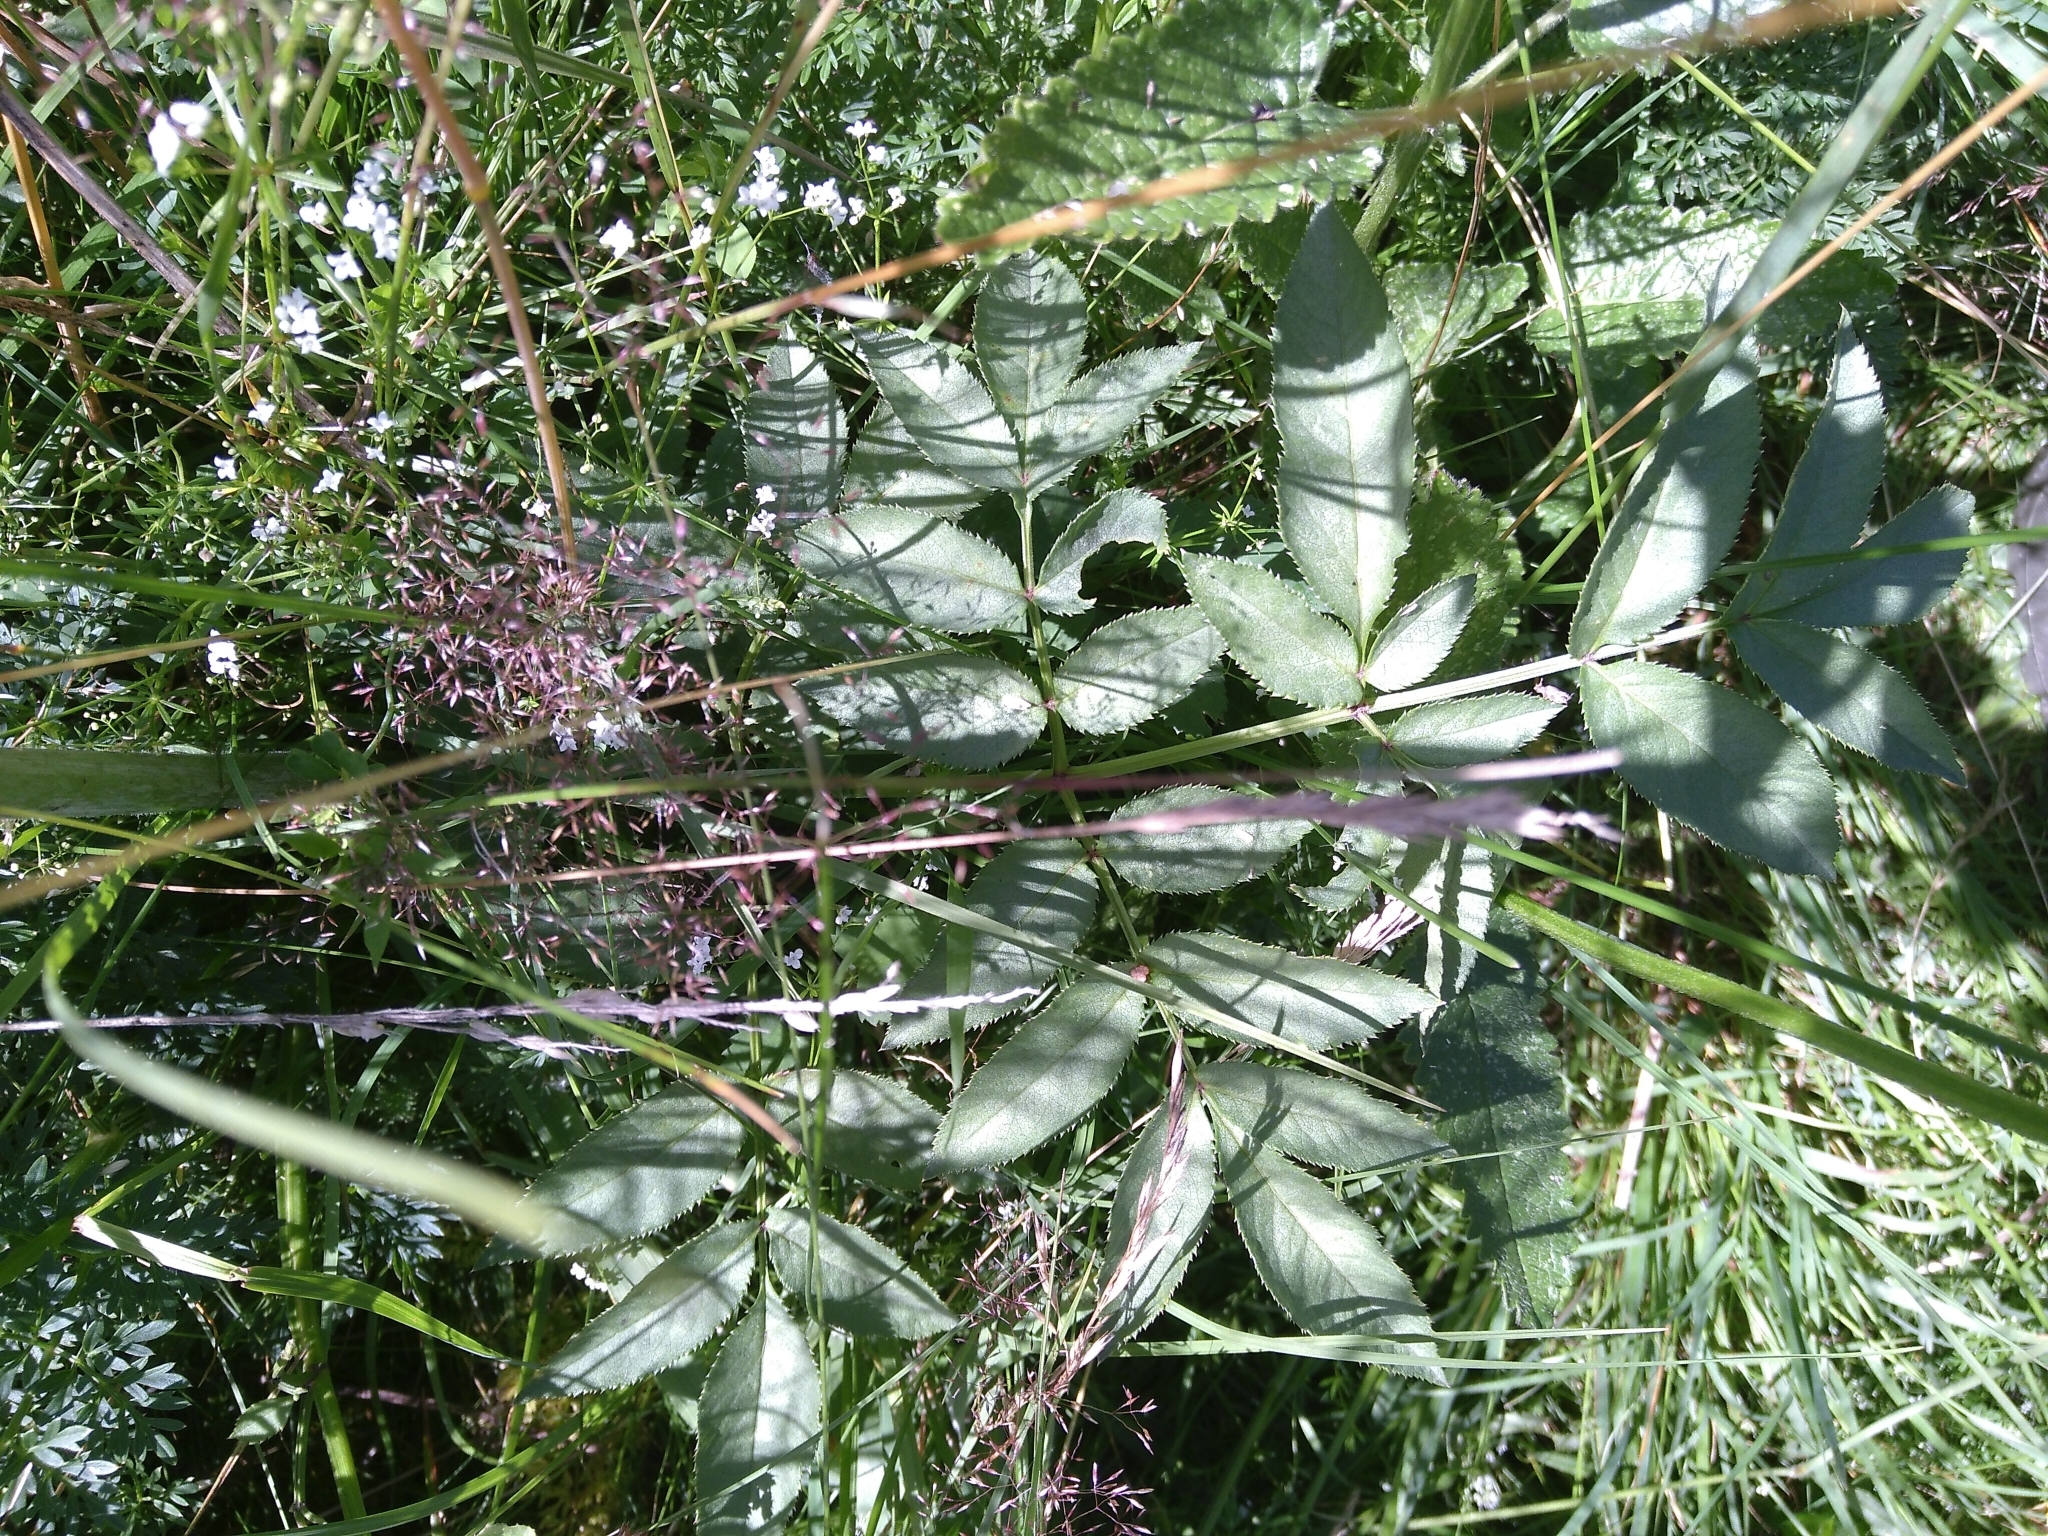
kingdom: Plantae
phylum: Tracheophyta
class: Magnoliopsida
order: Apiales
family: Apiaceae
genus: Angelica
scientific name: Angelica sylvestris
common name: Wild angelica
